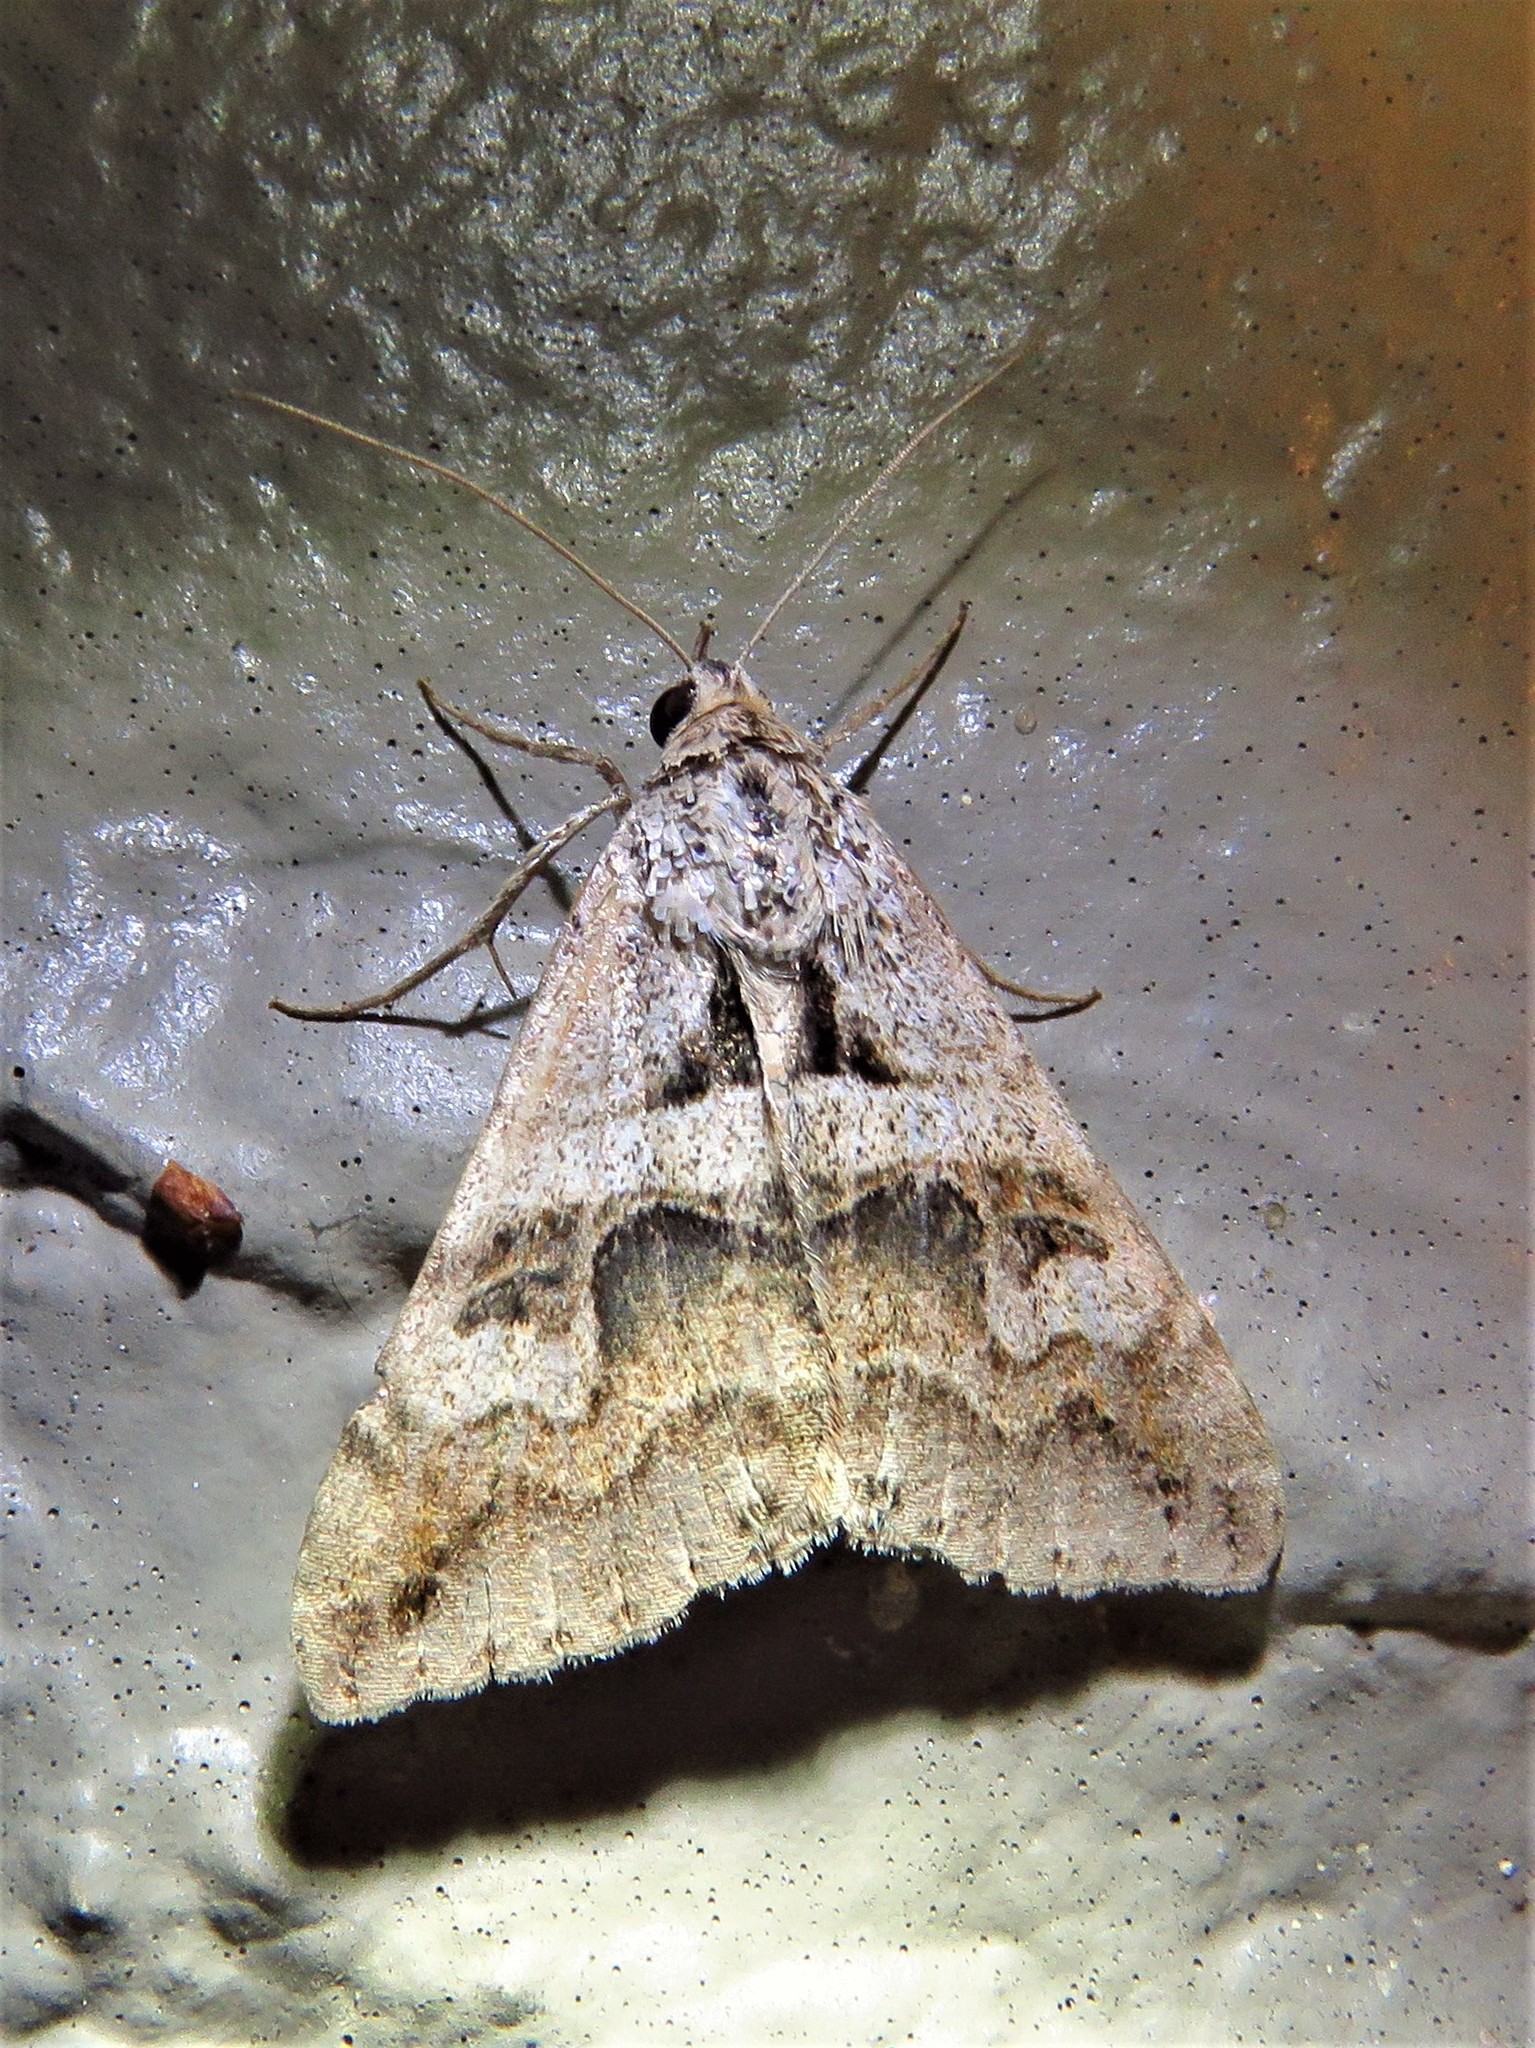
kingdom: Animalia
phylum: Arthropoda
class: Insecta
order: Lepidoptera
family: Erebidae
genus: Melipotis
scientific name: Melipotis cellaris
